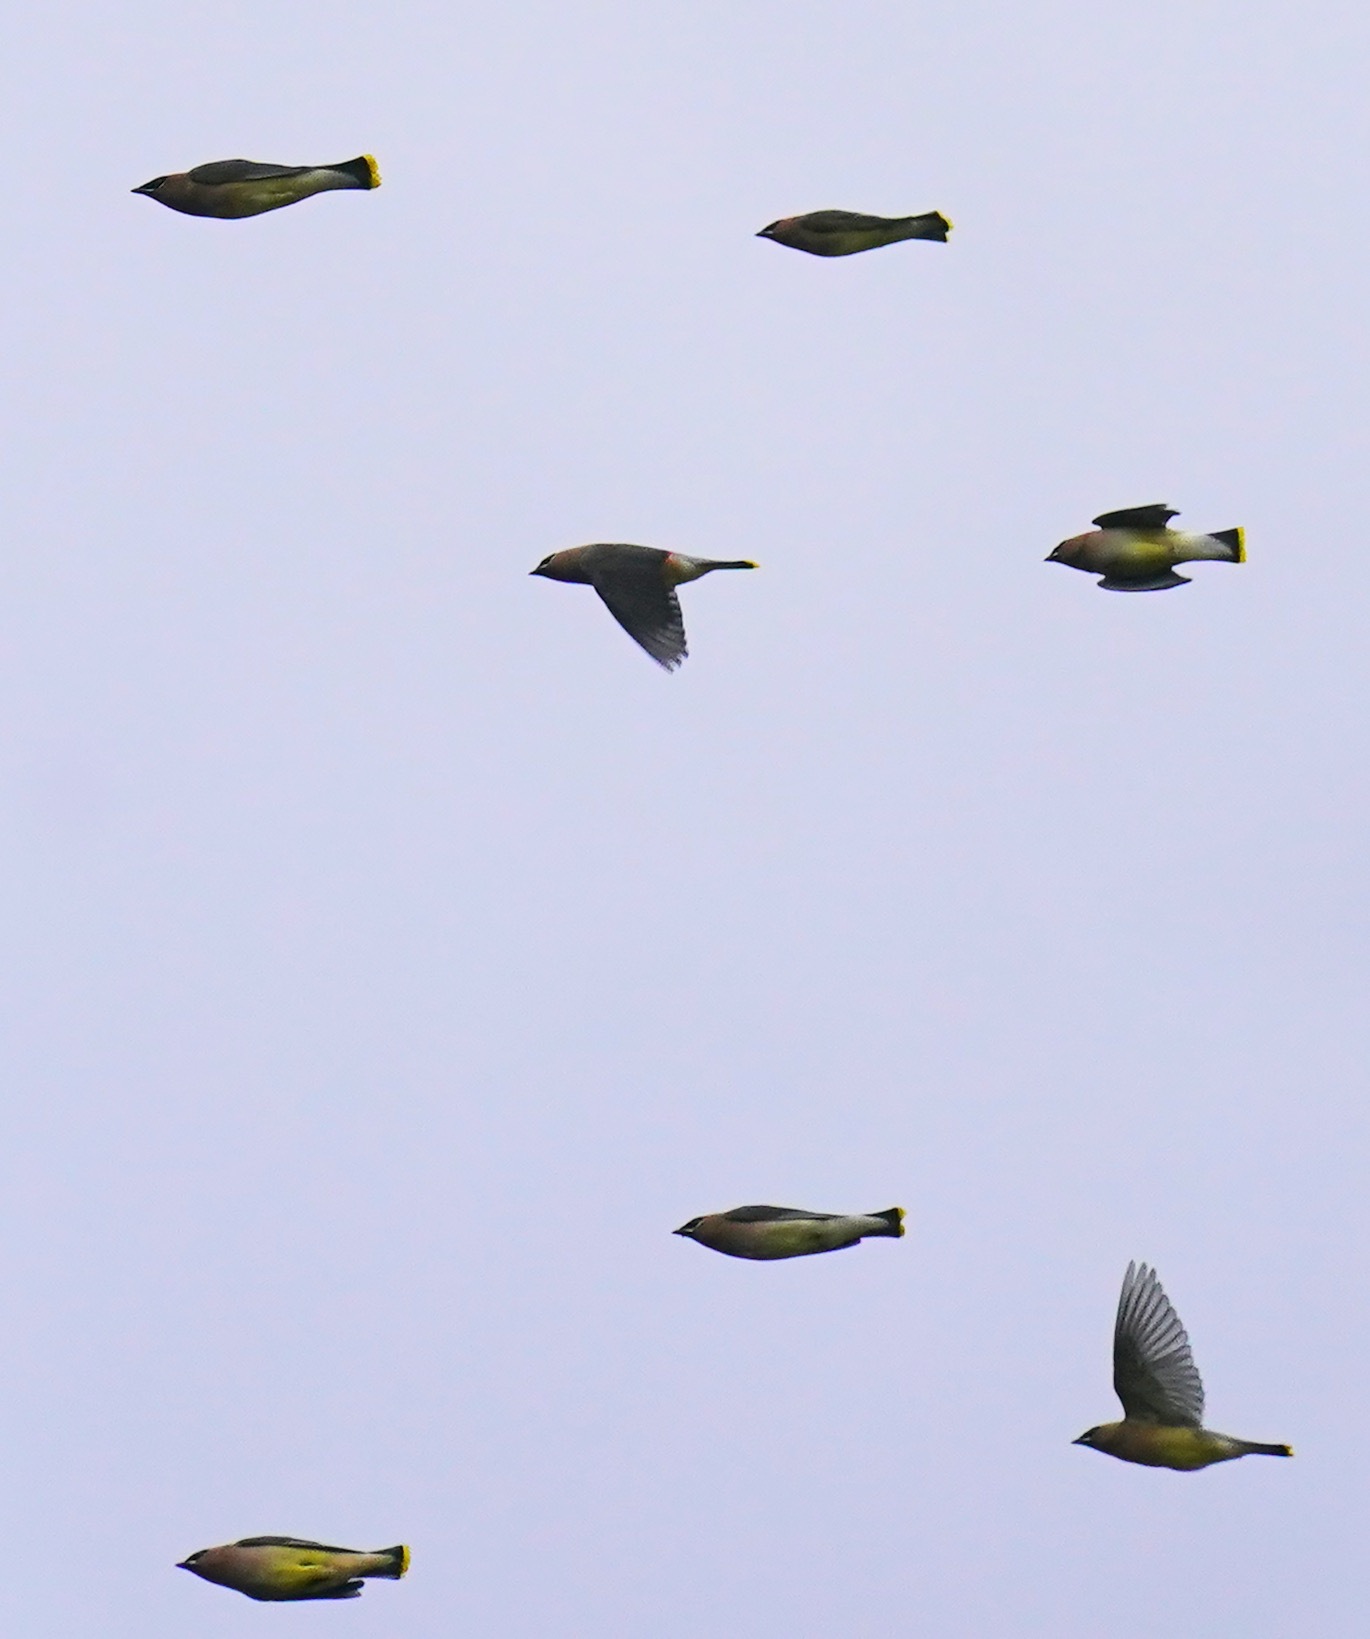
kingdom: Animalia
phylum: Chordata
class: Aves
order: Passeriformes
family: Bombycillidae
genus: Bombycilla
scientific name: Bombycilla cedrorum
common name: Cedar waxwing
